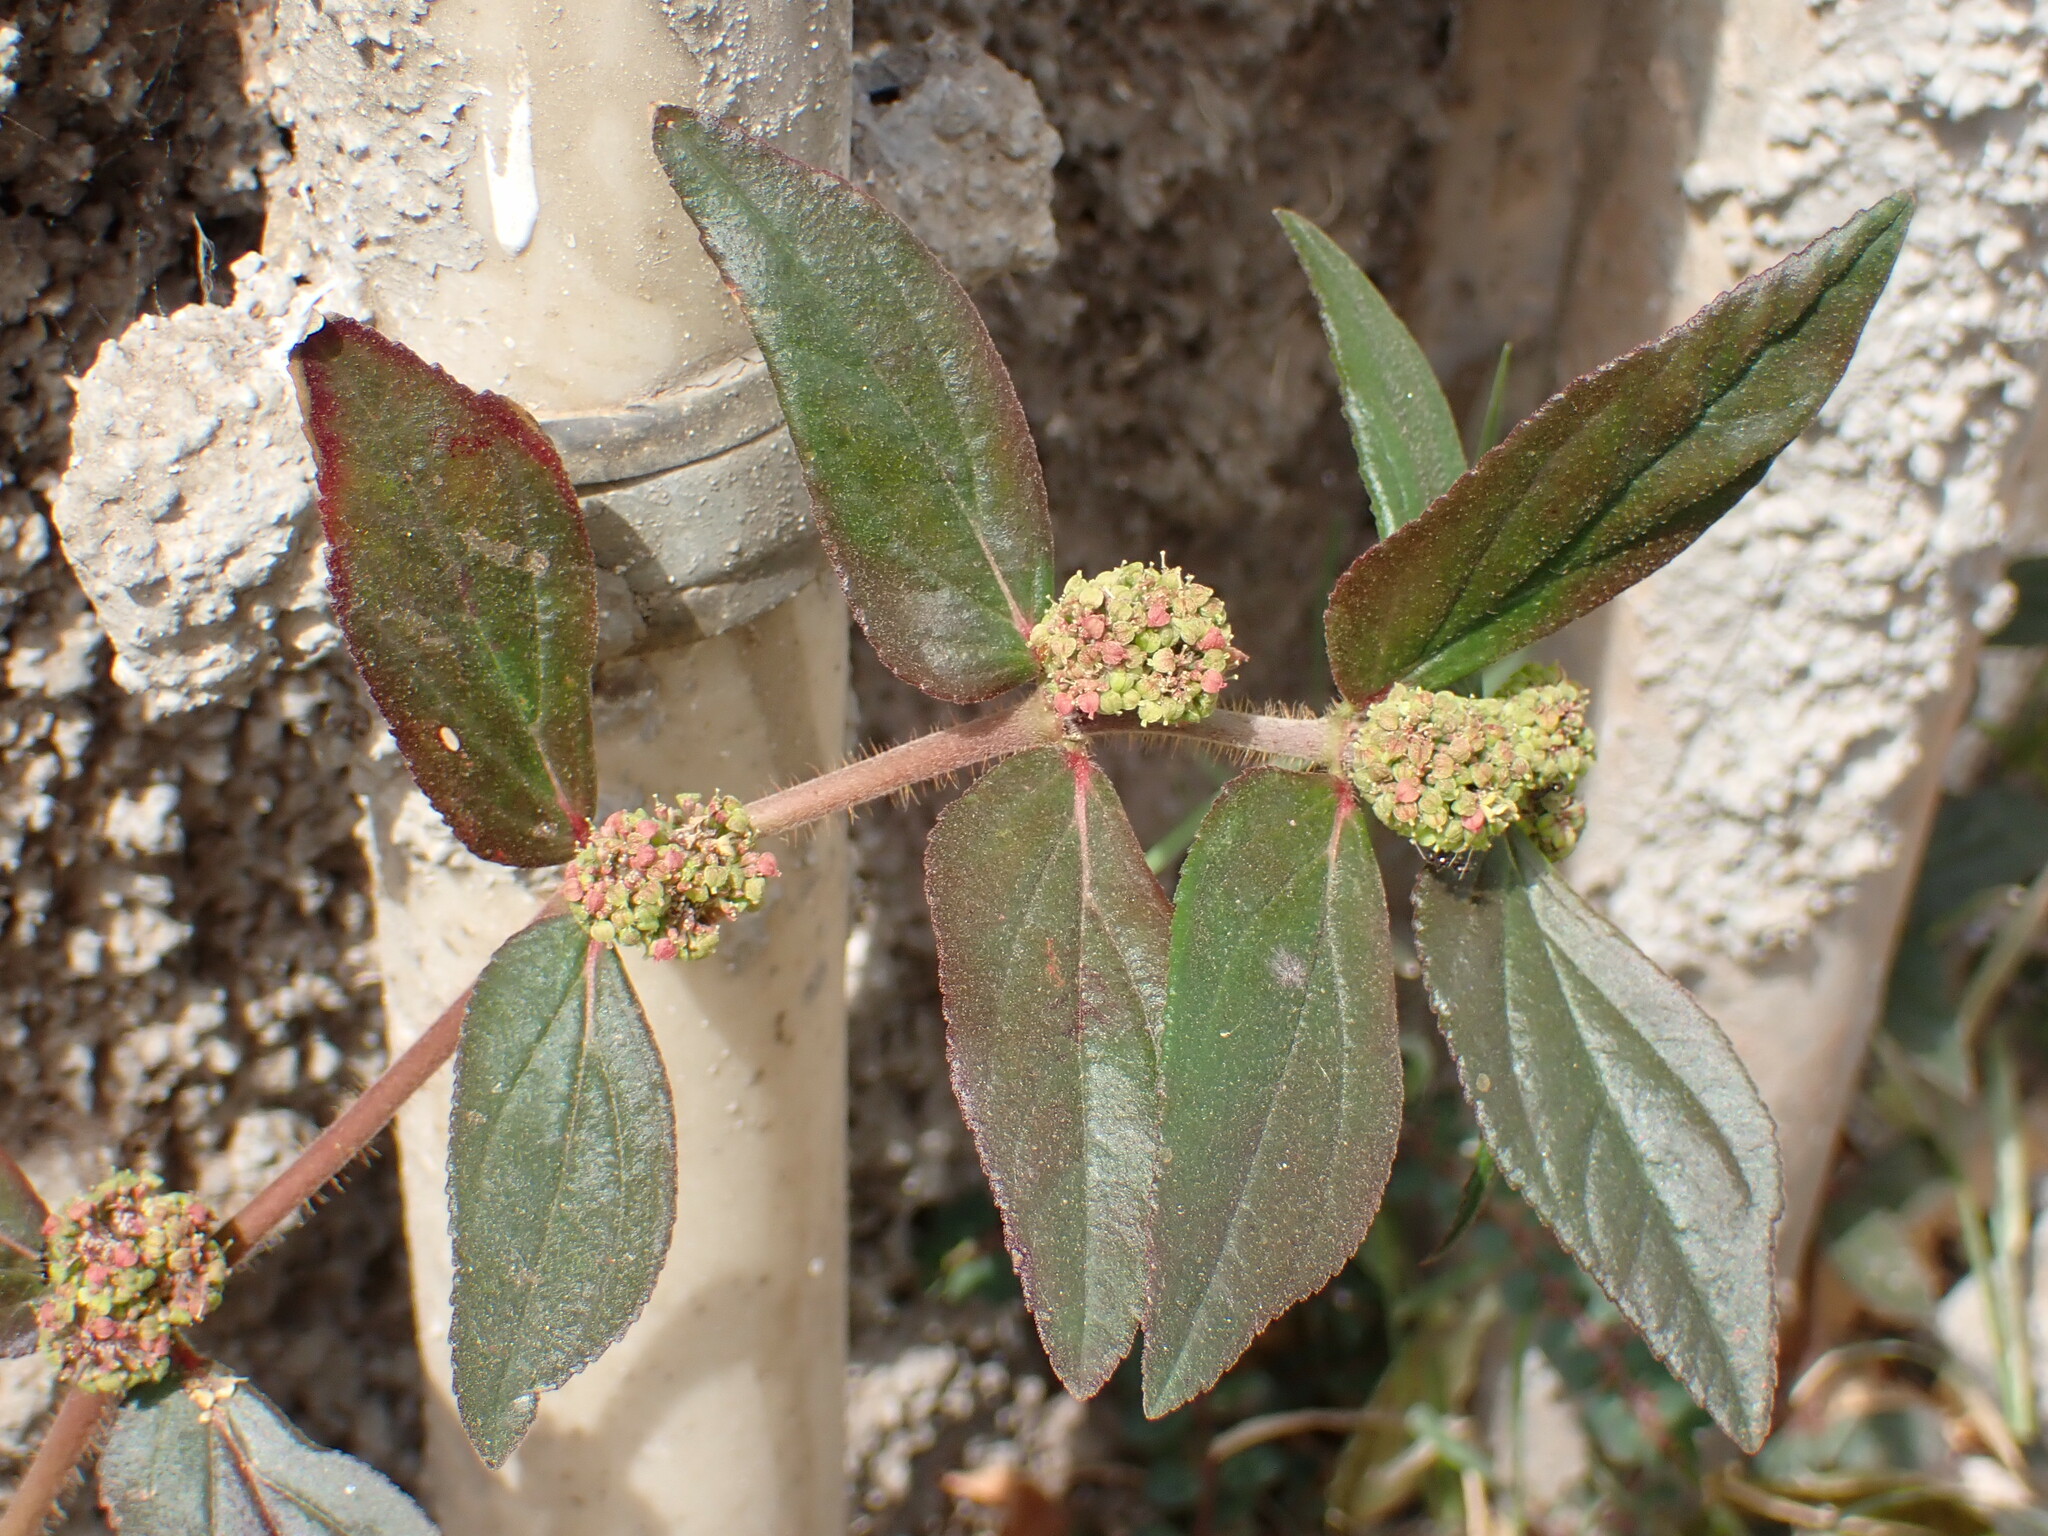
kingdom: Plantae
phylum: Tracheophyta
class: Magnoliopsida
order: Malpighiales
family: Euphorbiaceae
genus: Euphorbia
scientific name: Euphorbia hirta
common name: Pillpod sandmat
